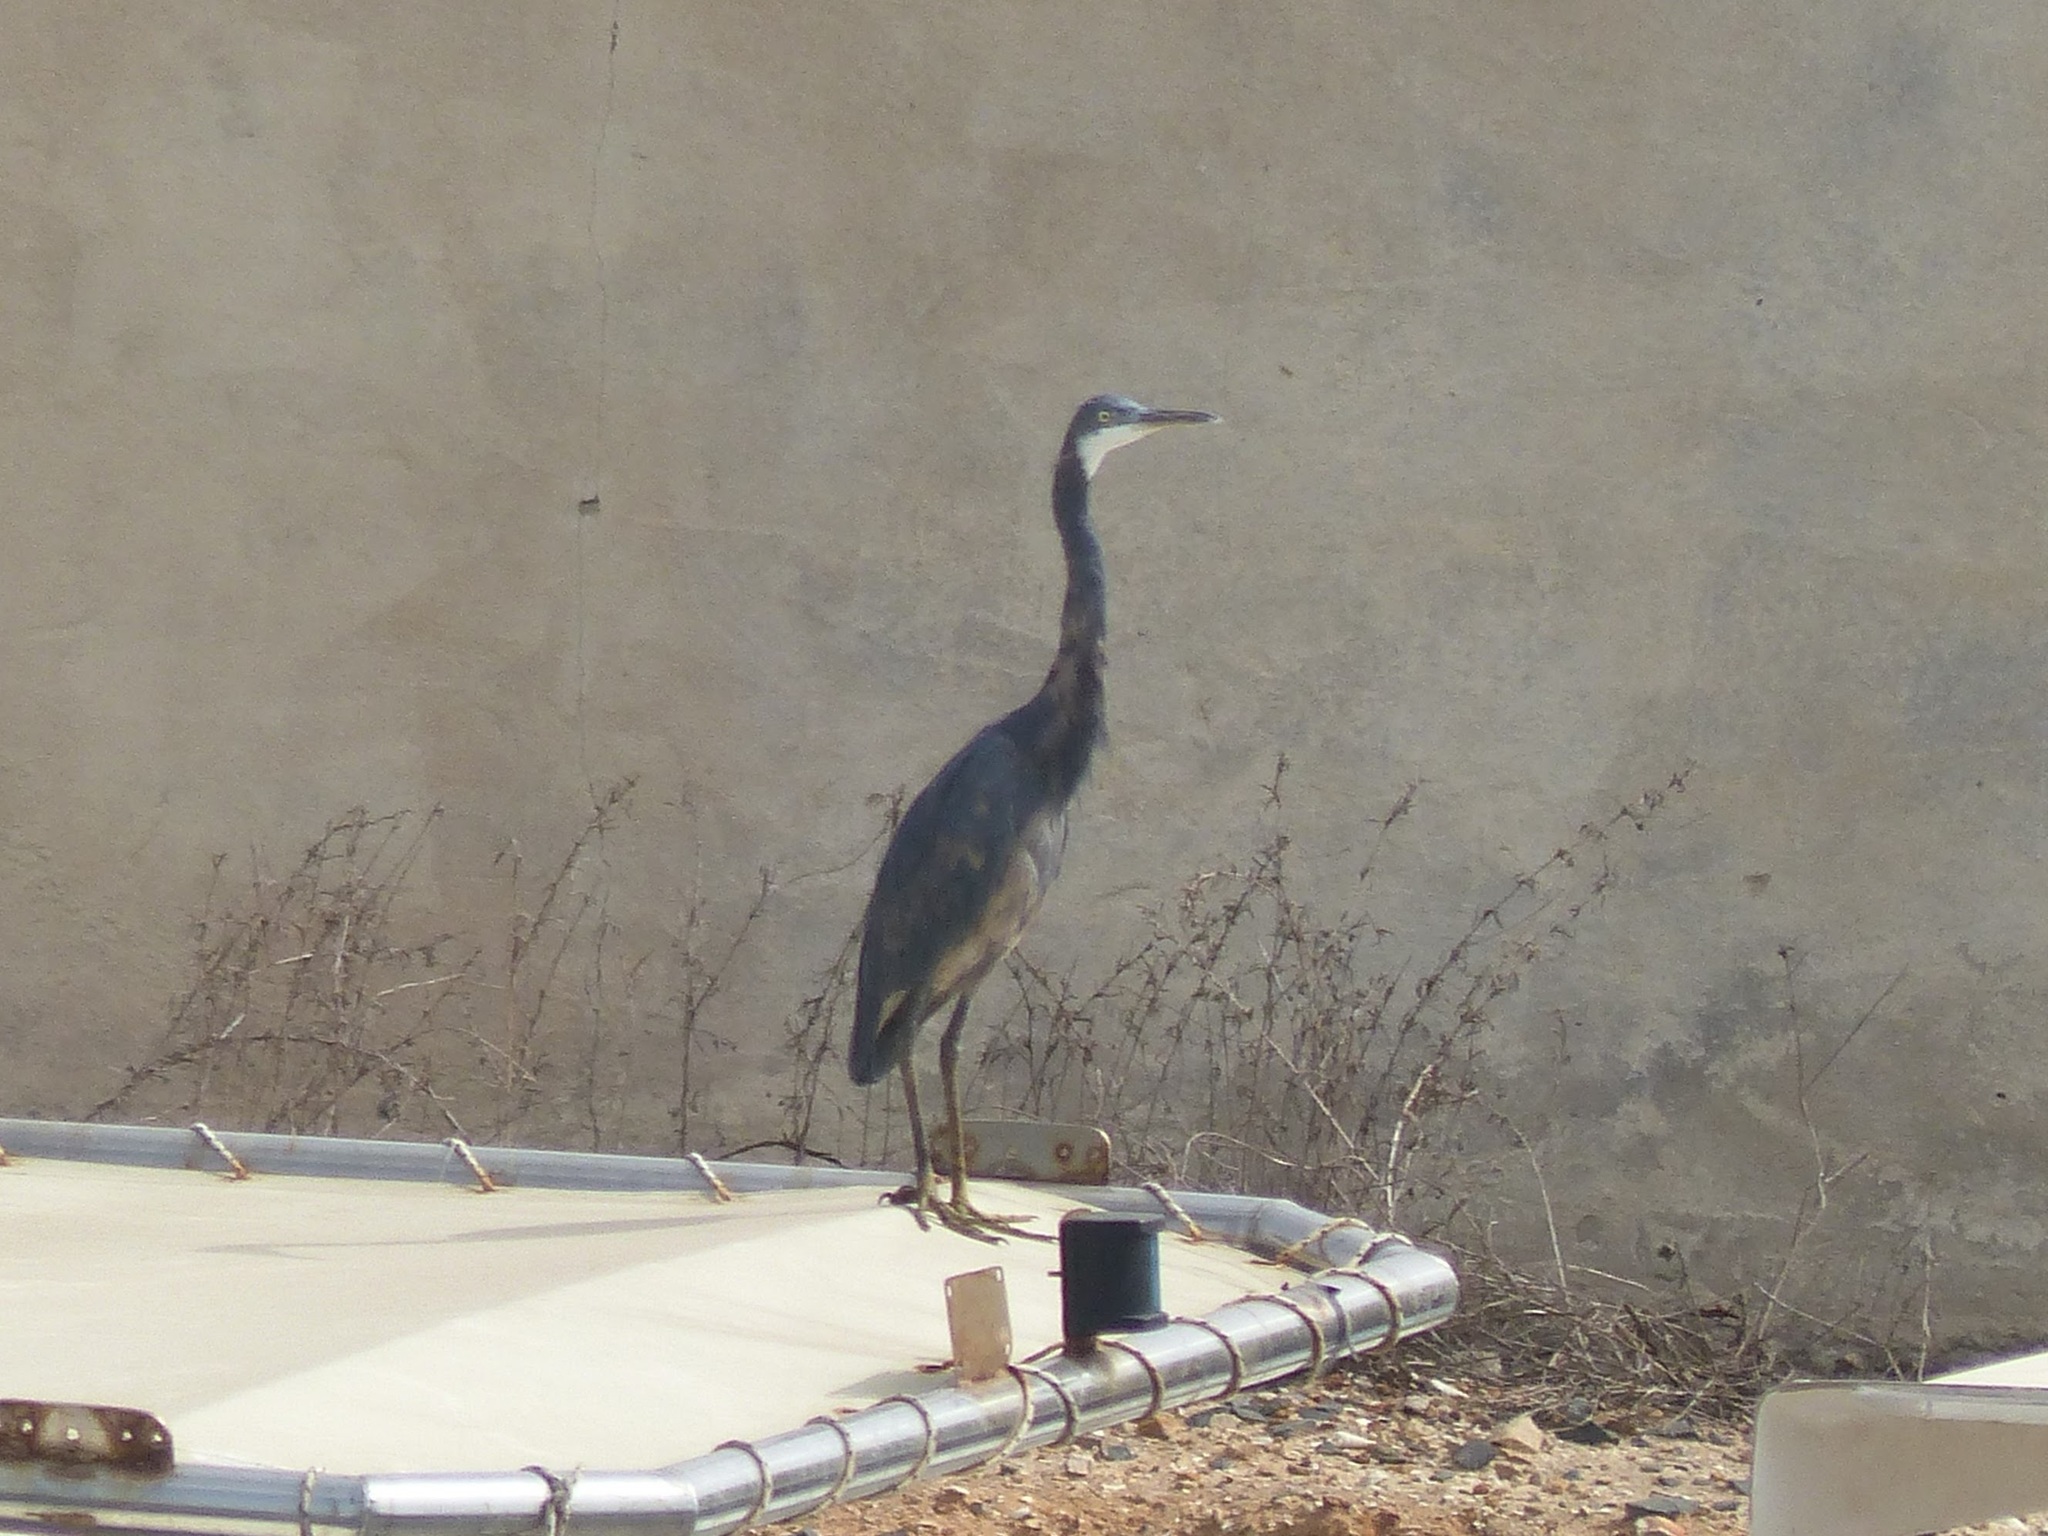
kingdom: Animalia
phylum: Chordata
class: Aves
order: Pelecaniformes
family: Ardeidae
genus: Egretta
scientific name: Egretta gularis
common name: Western reef-heron
